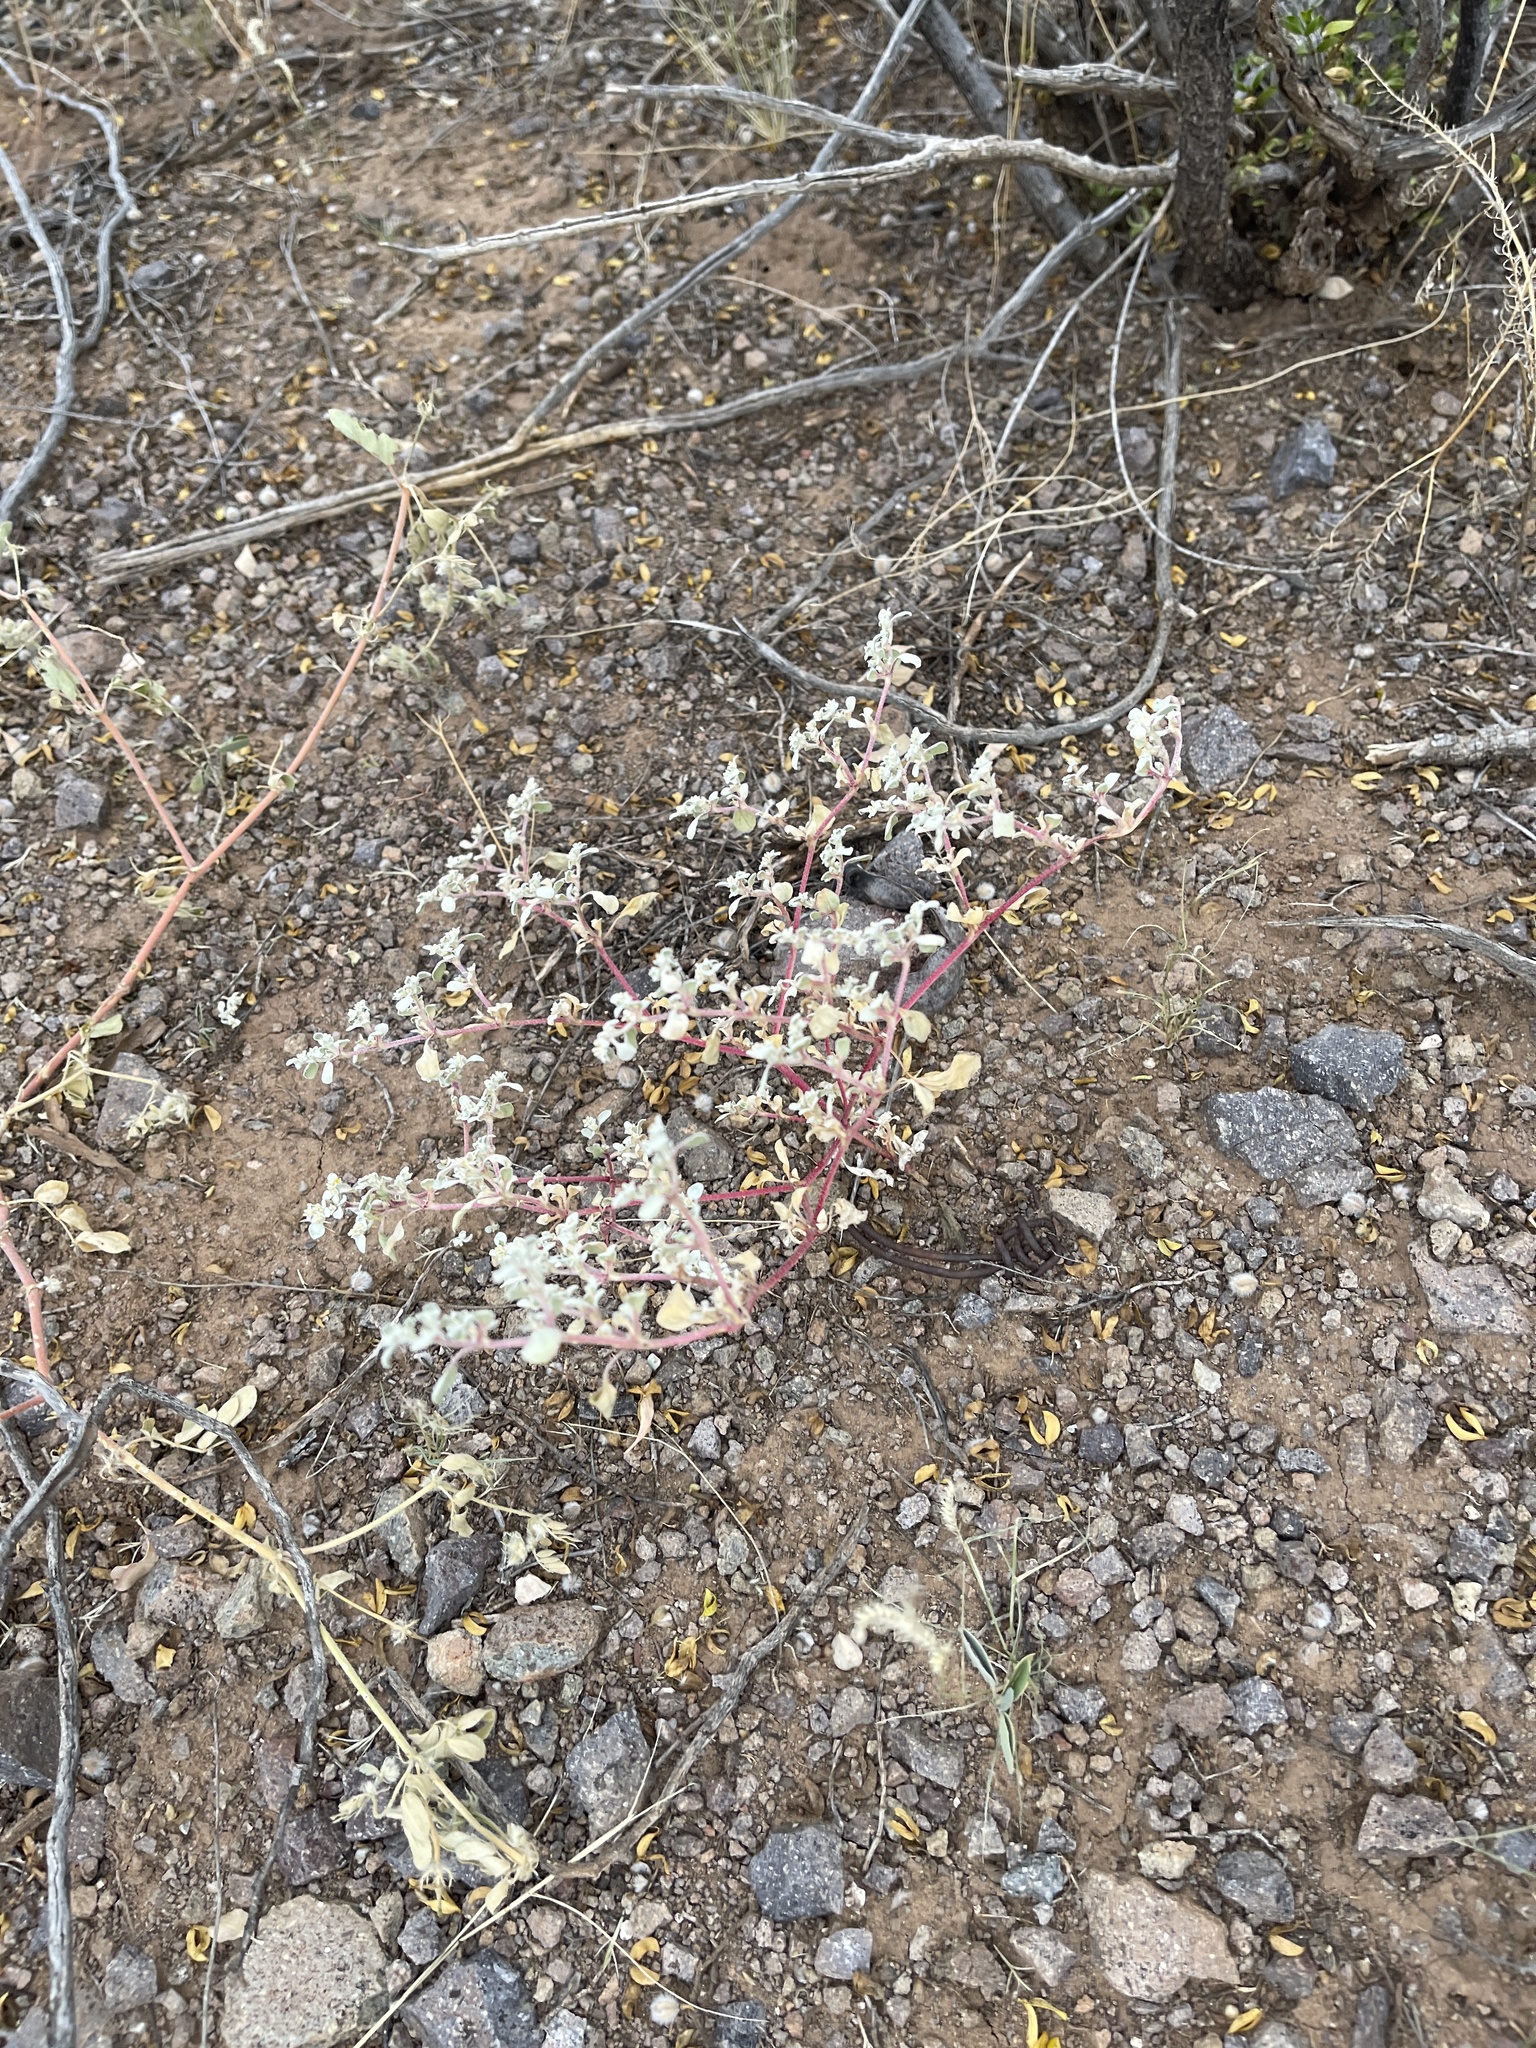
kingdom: Plantae
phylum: Tracheophyta
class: Magnoliopsida
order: Caryophyllales
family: Amaranthaceae
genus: Tidestromia
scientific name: Tidestromia lanuginosa
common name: Woolly tidestromia
